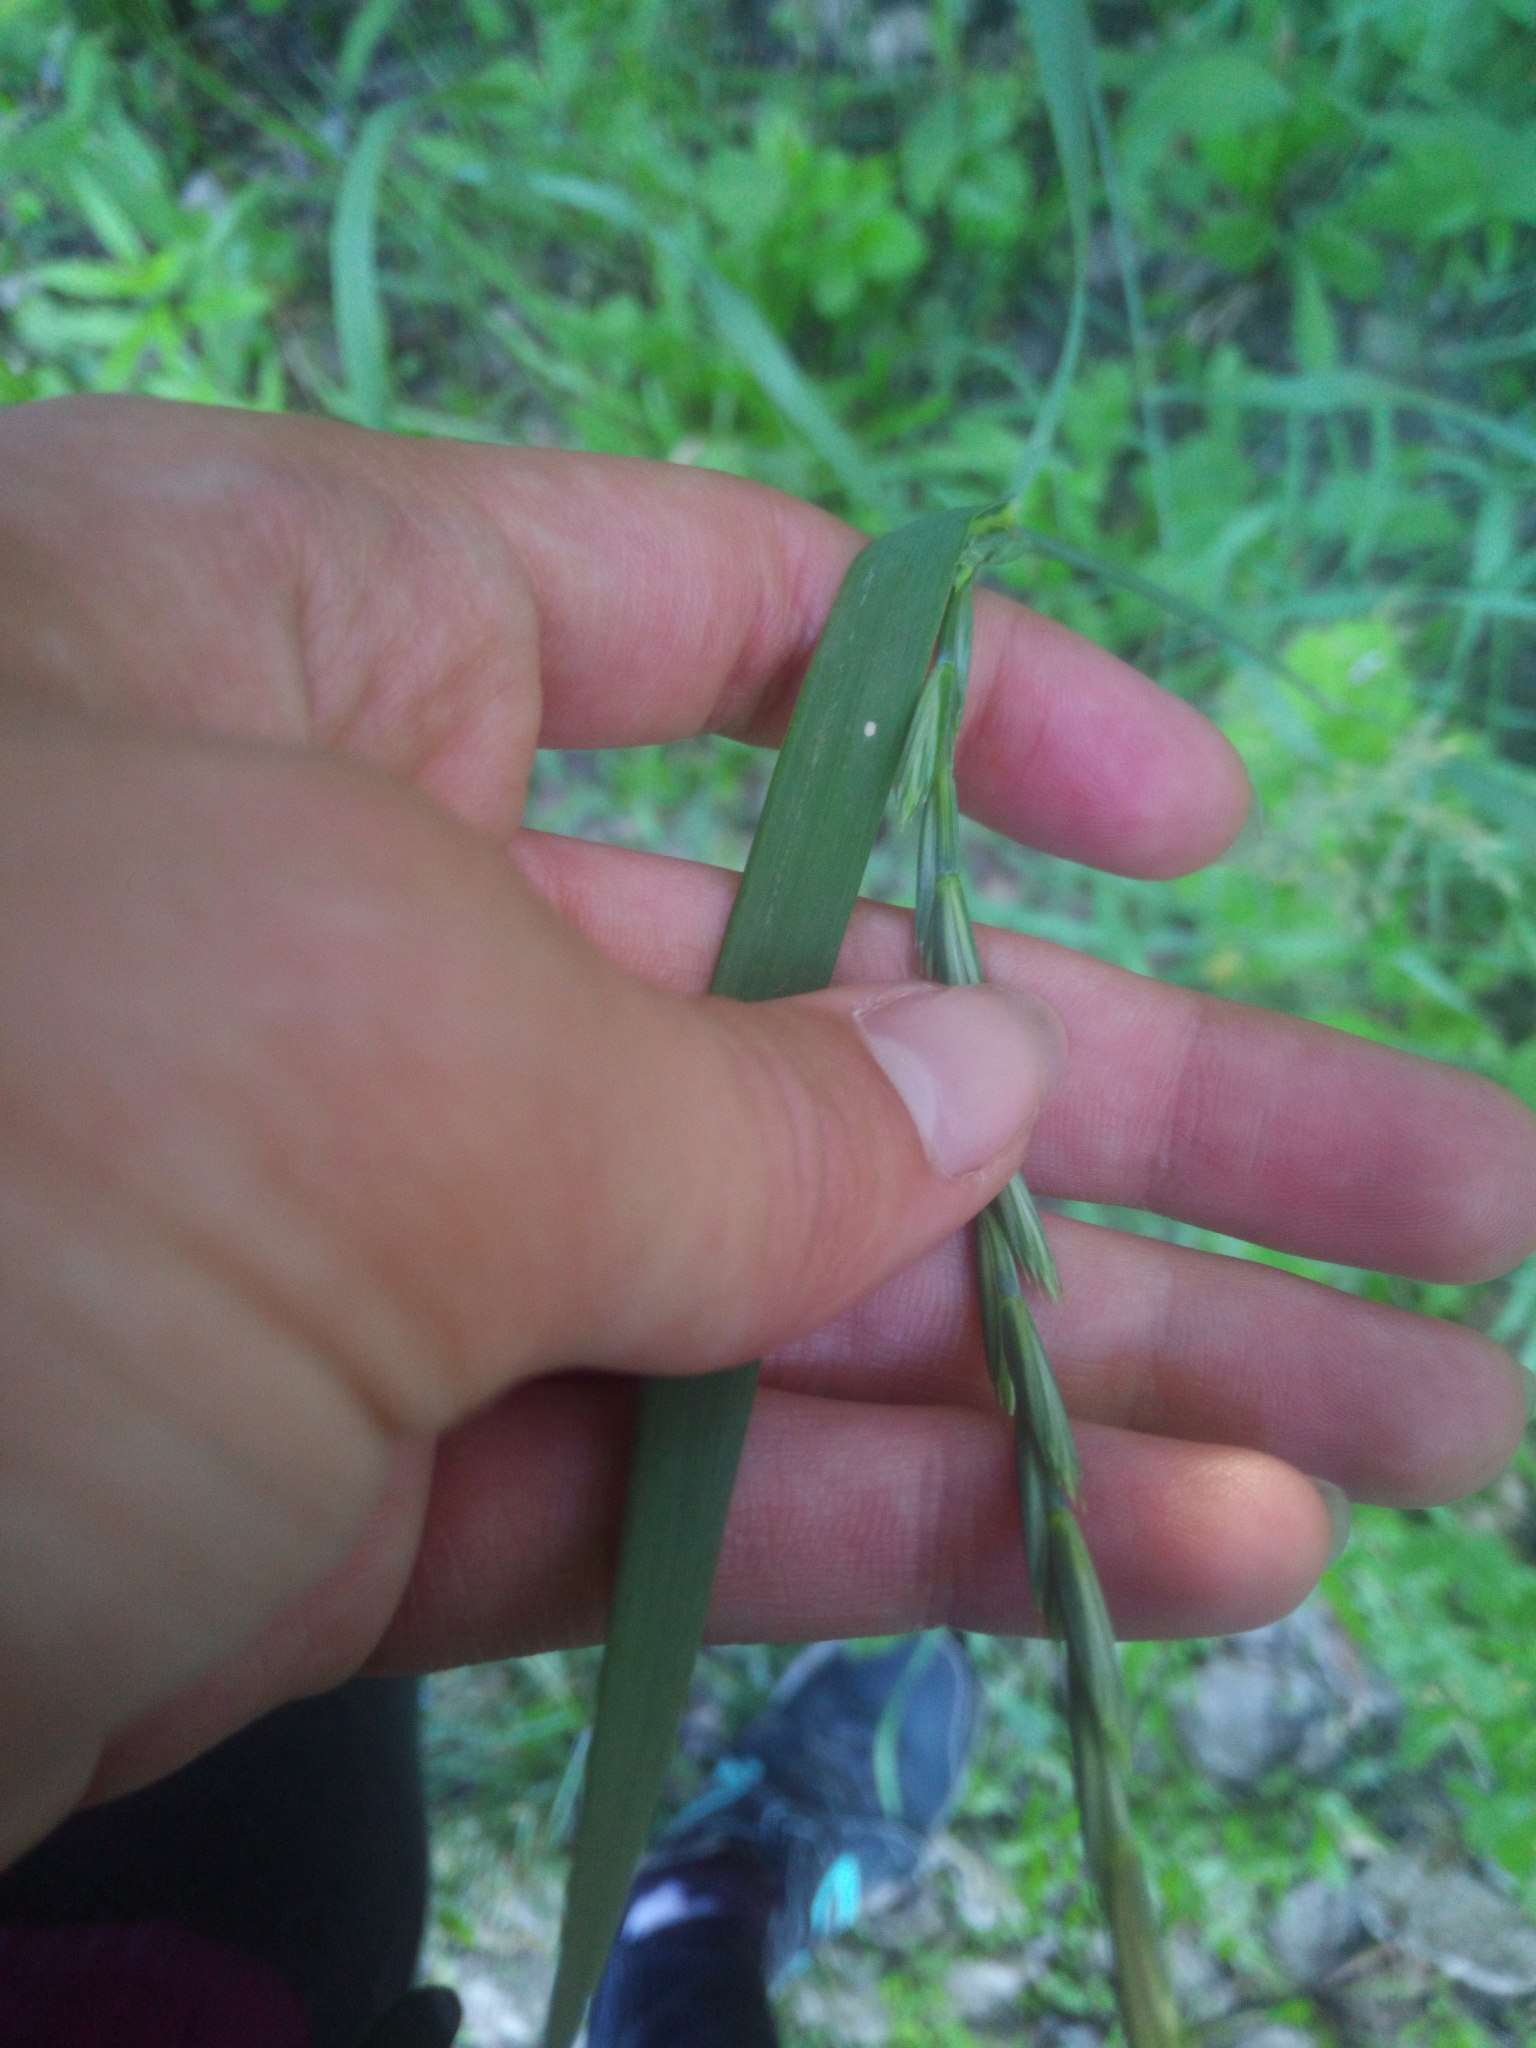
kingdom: Plantae
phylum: Tracheophyta
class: Liliopsida
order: Poales
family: Poaceae
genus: Elymus
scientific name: Elymus repens
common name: Quackgrass
